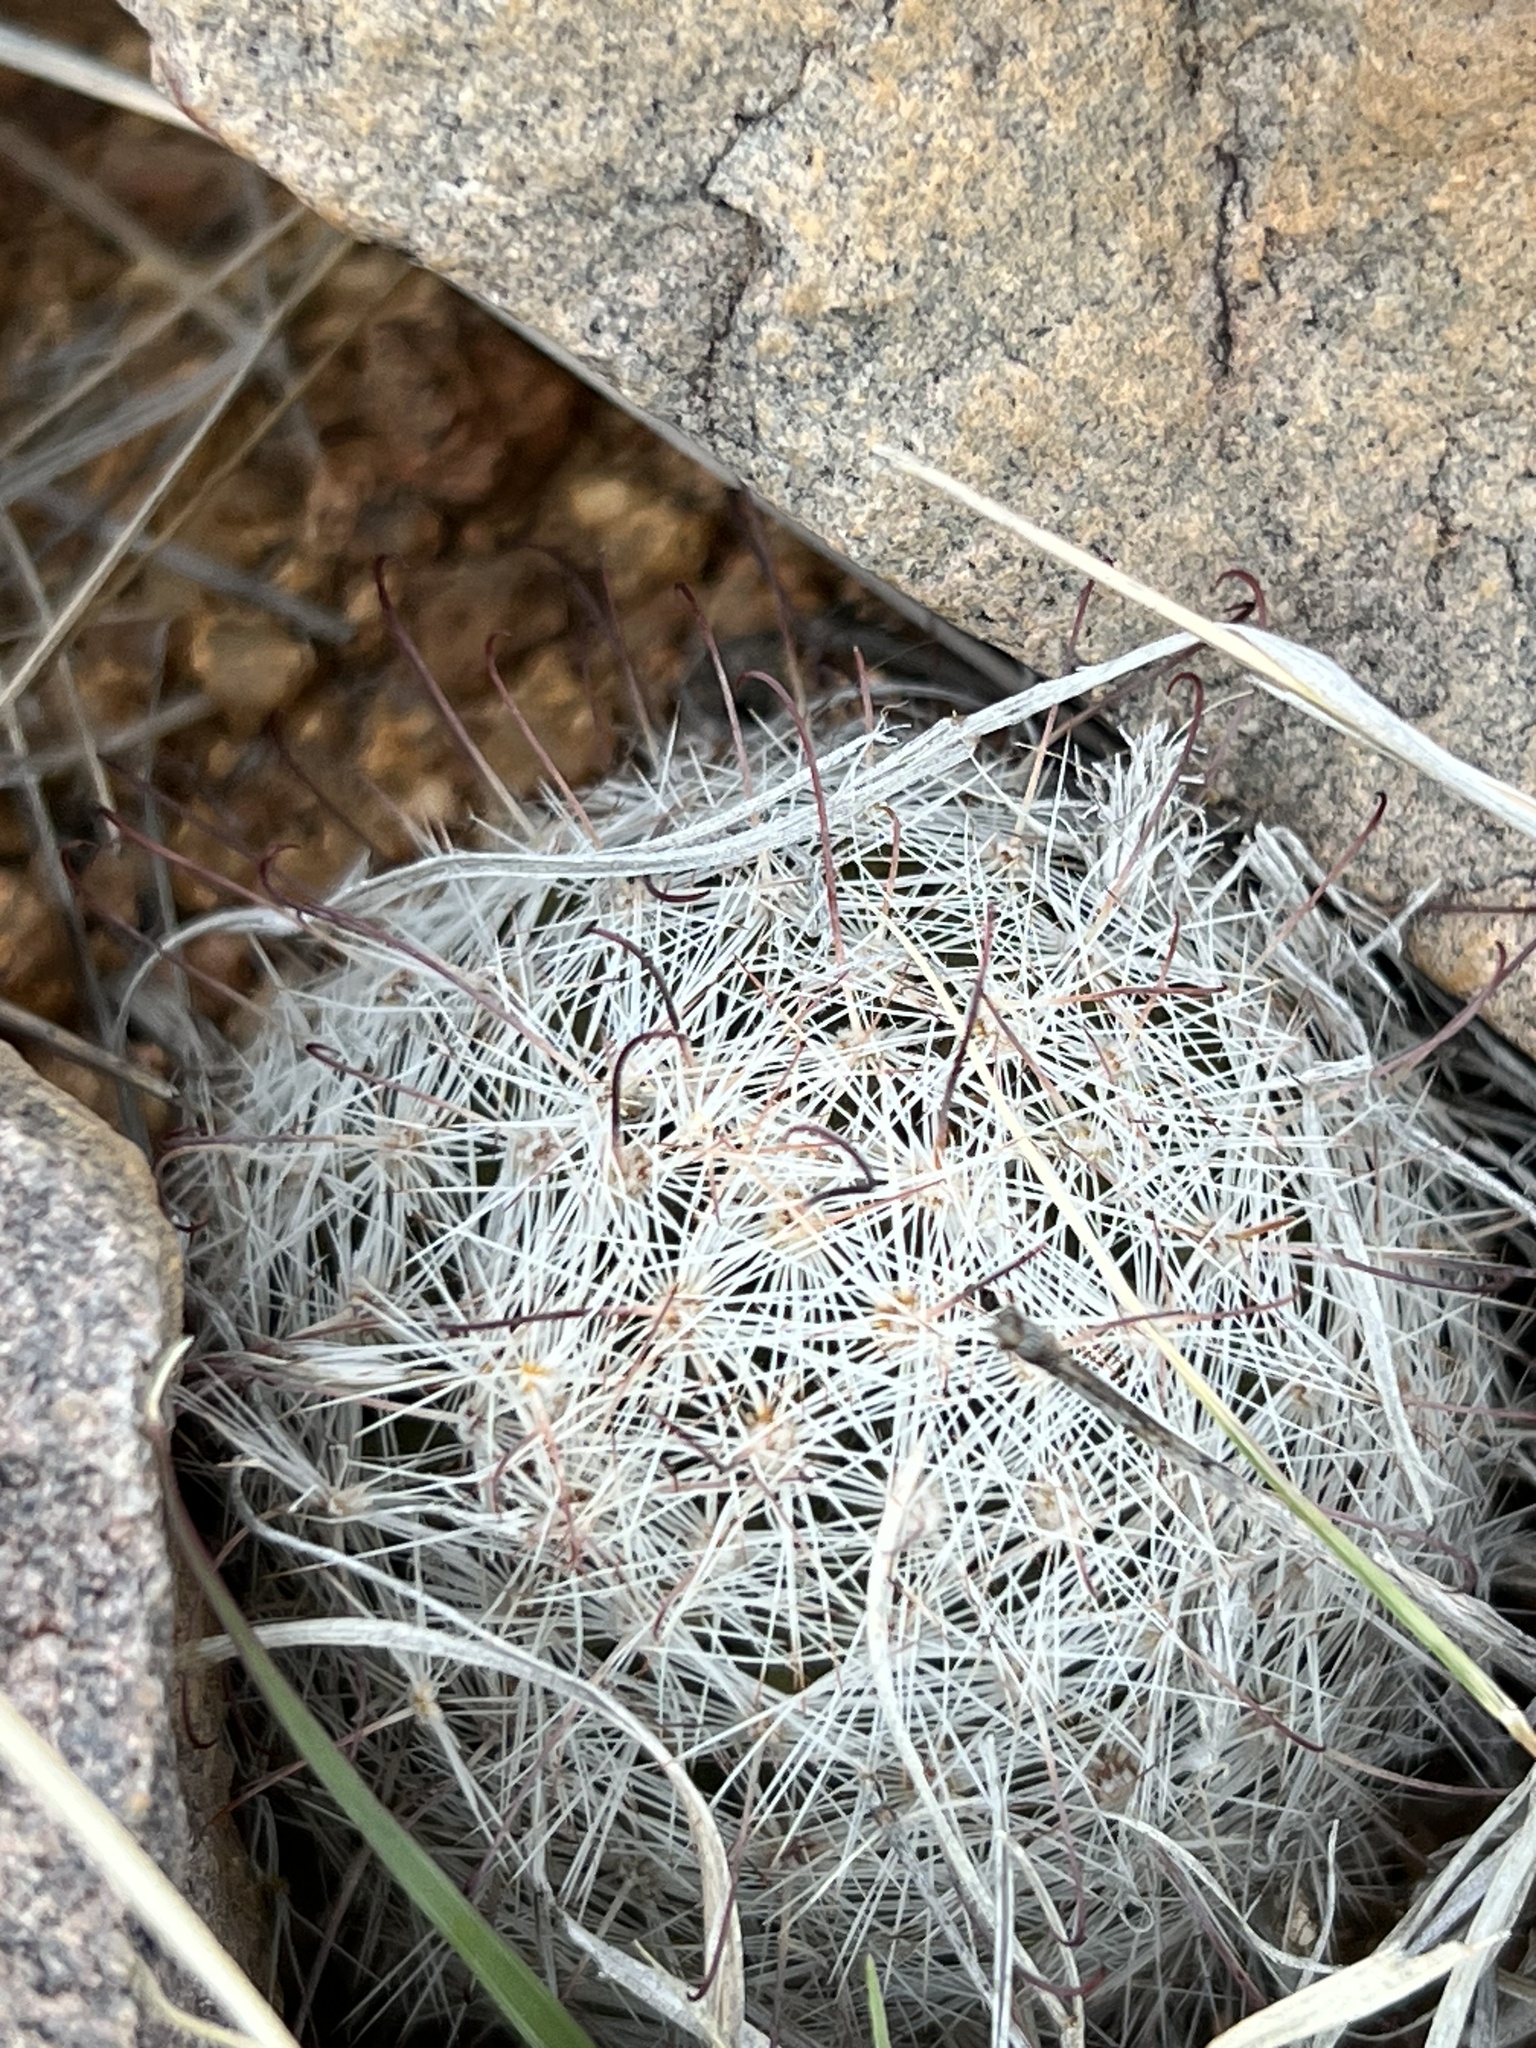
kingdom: Plantae
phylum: Tracheophyta
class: Magnoliopsida
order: Caryophyllales
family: Cactaceae
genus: Cochemiea
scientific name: Cochemiea grahamii
